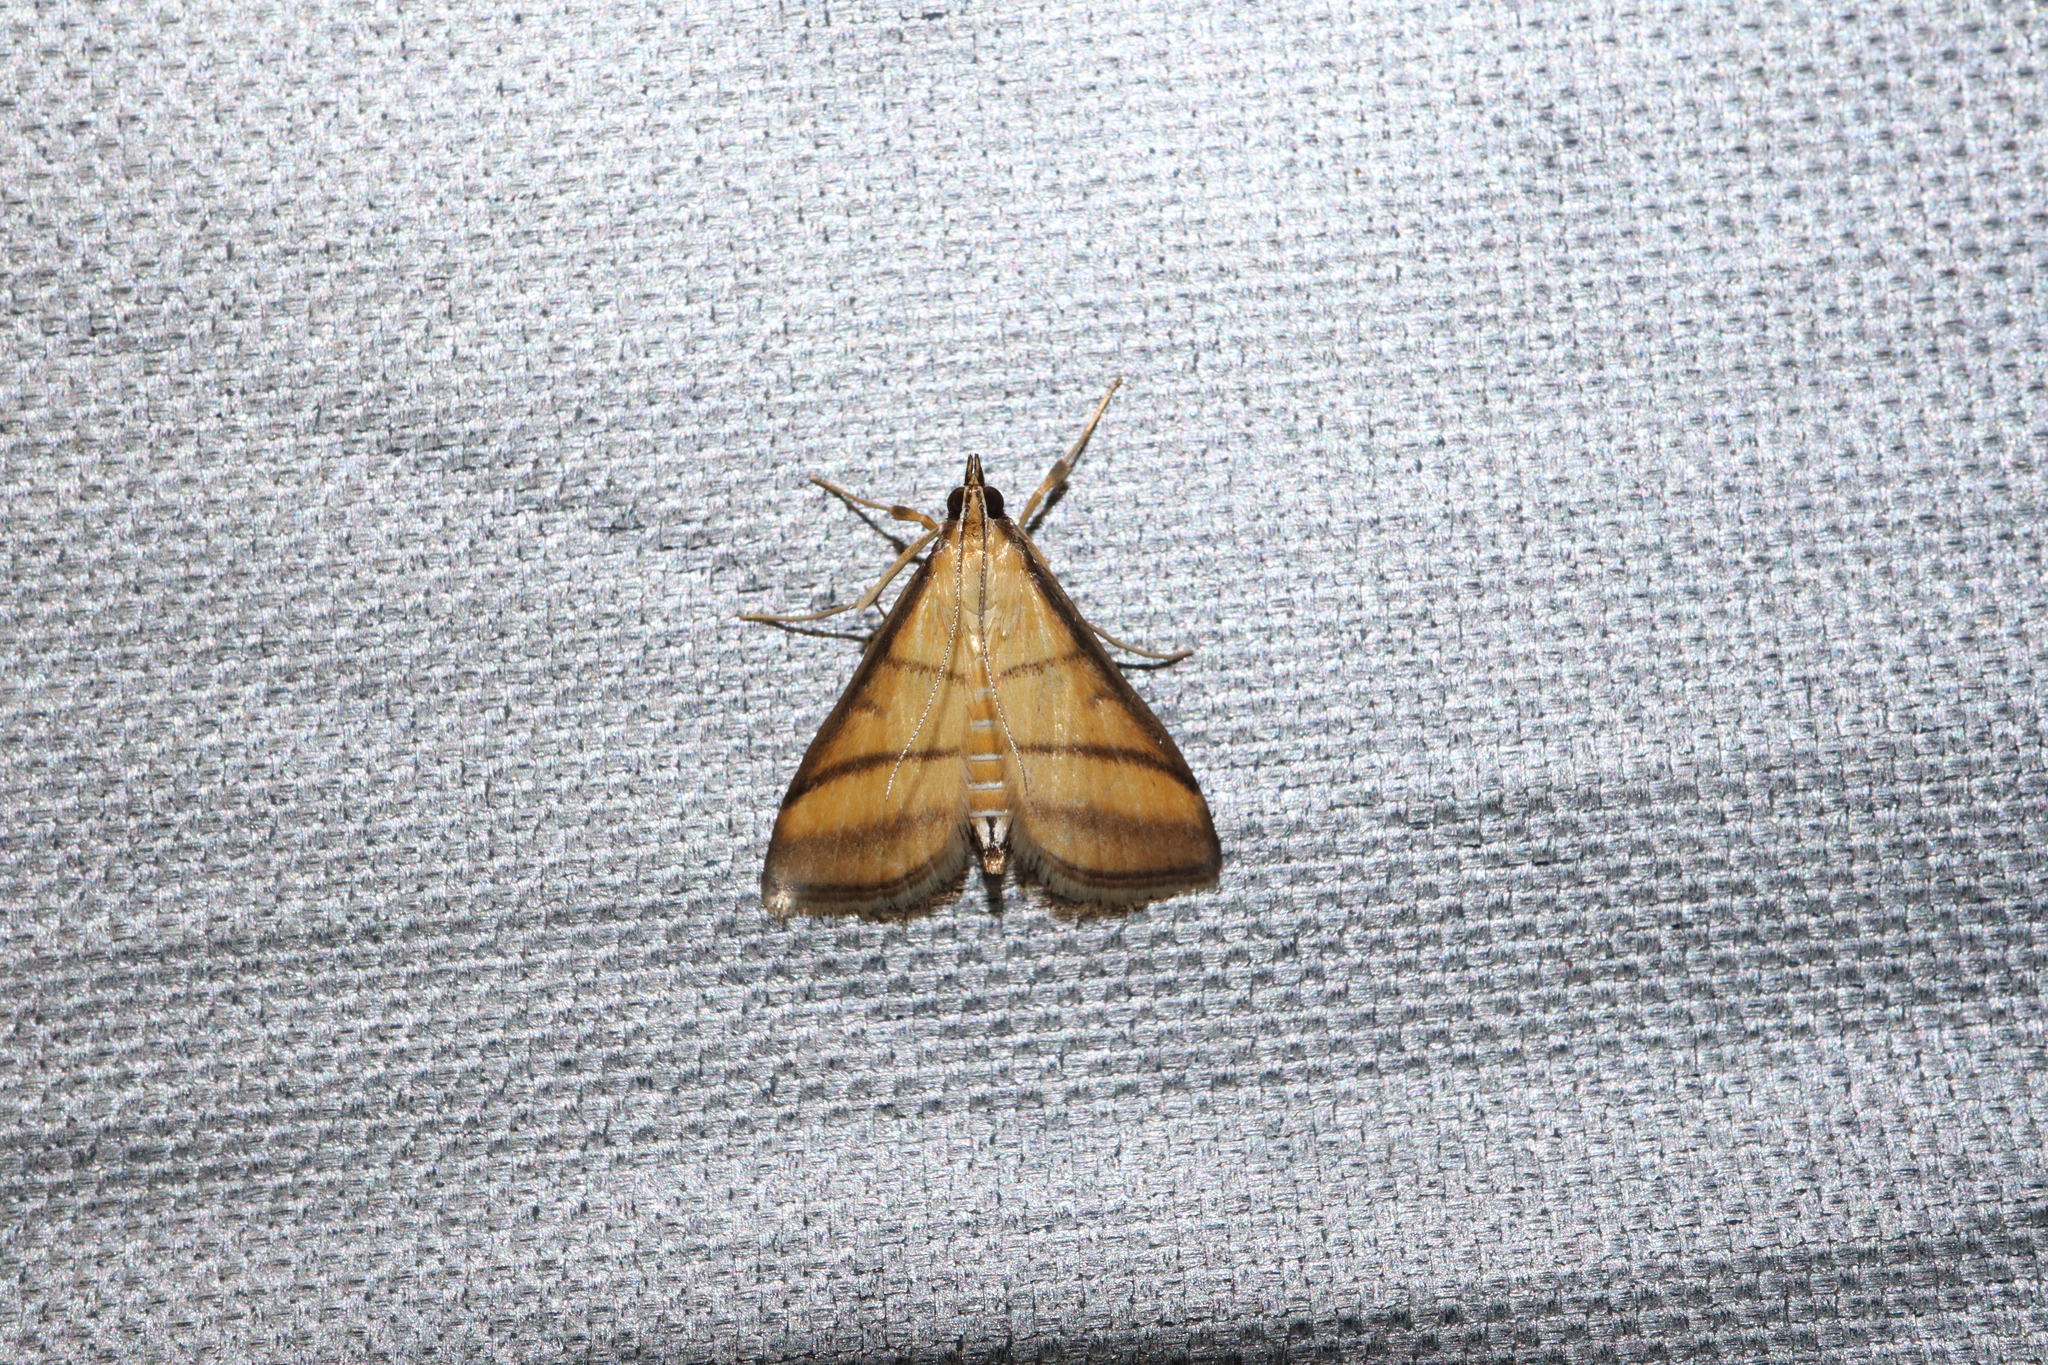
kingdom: Animalia
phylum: Arthropoda
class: Insecta
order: Lepidoptera
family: Crambidae
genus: Cnaphalocrocis
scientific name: Cnaphalocrocis medinalis
